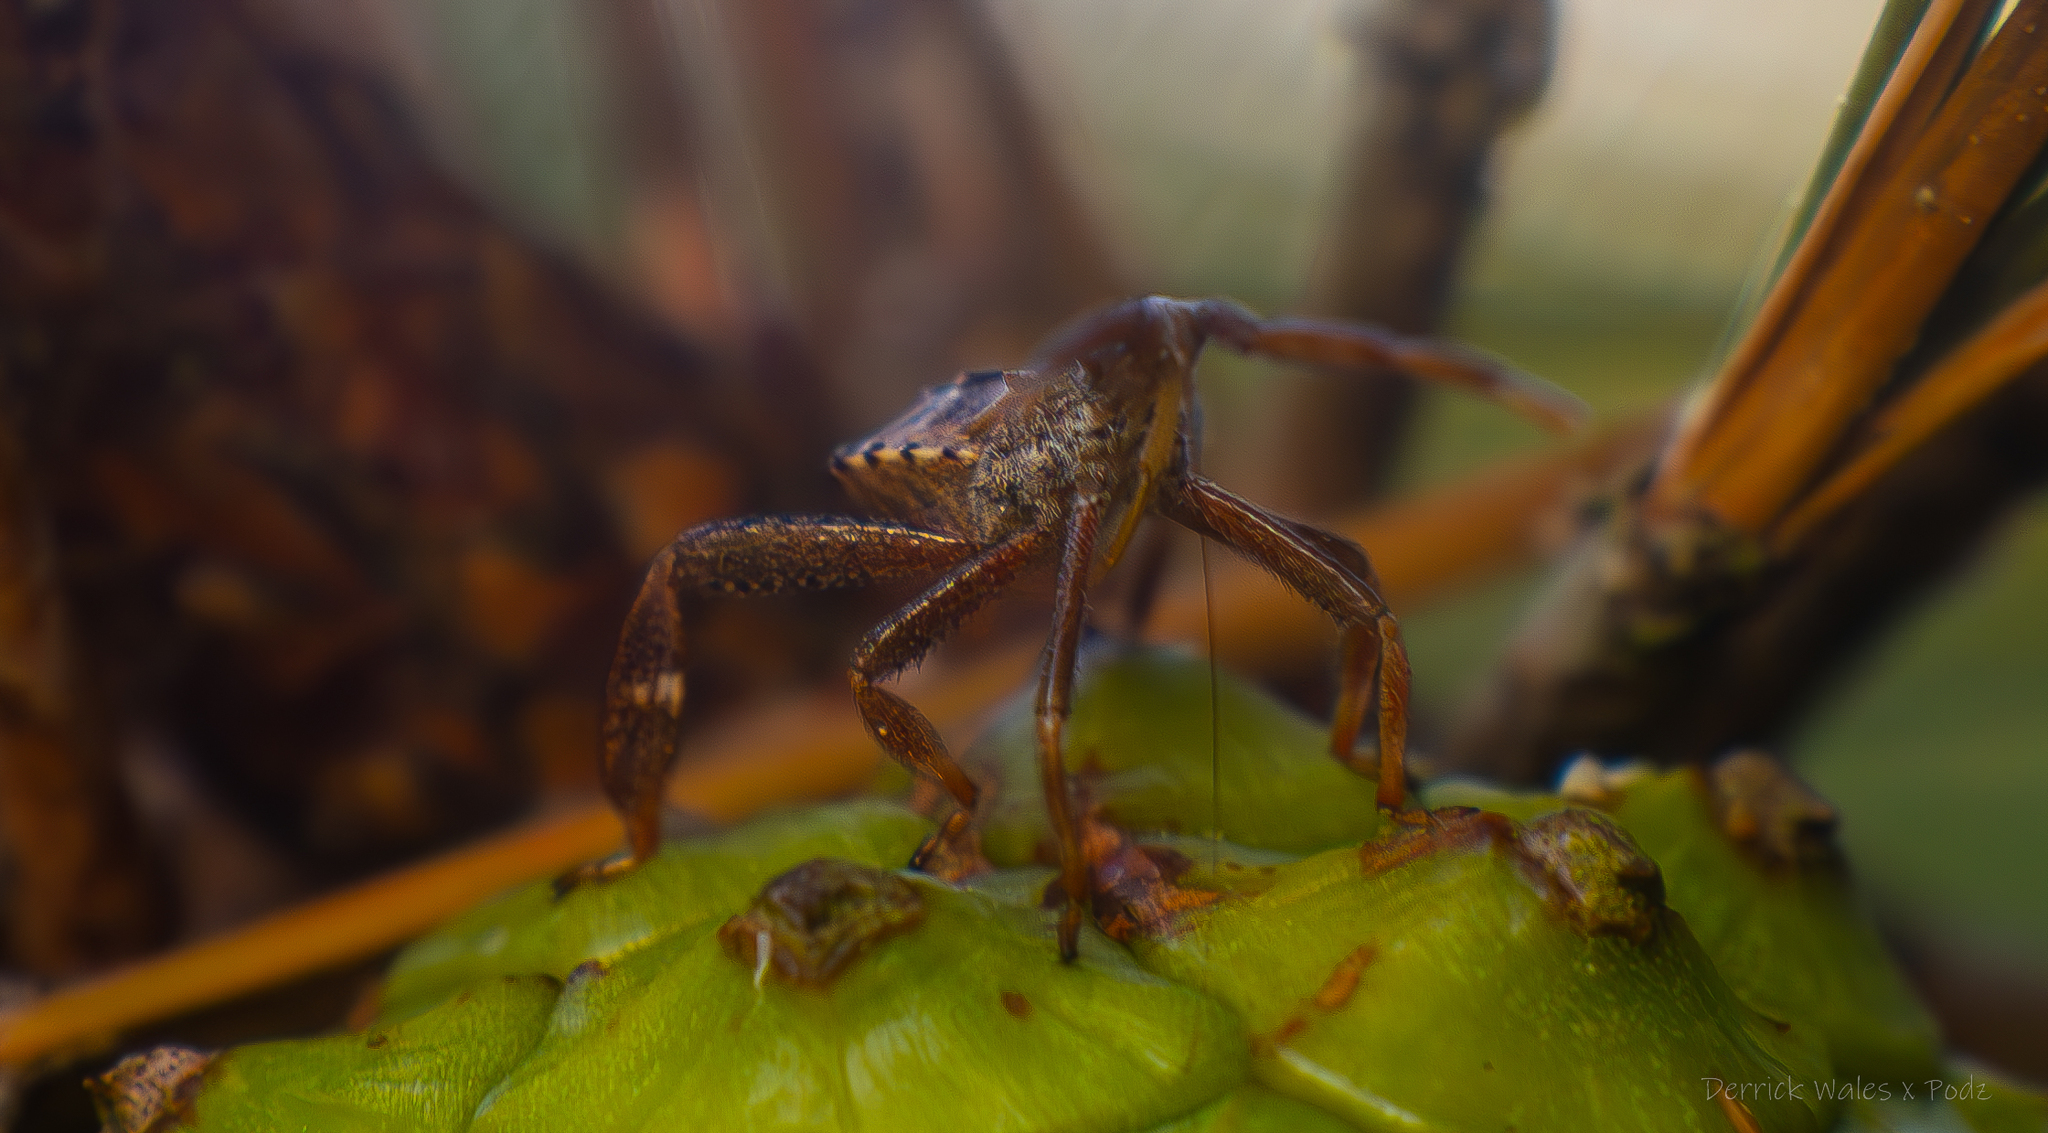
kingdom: Animalia
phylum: Arthropoda
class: Insecta
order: Hemiptera
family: Coreidae
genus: Leptoglossus
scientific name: Leptoglossus corculus
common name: Southern pine seed bug
